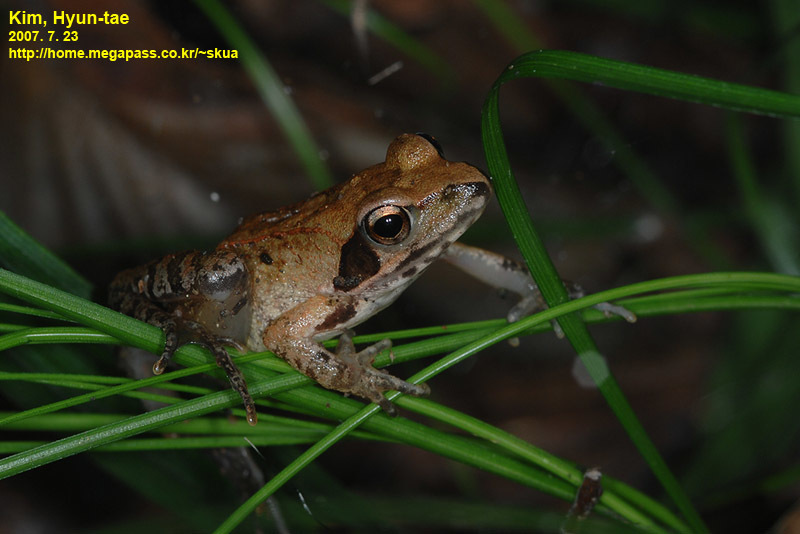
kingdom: Animalia
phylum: Chordata
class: Amphibia
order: Anura
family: Ranidae
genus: Rana
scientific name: Rana uenoi
